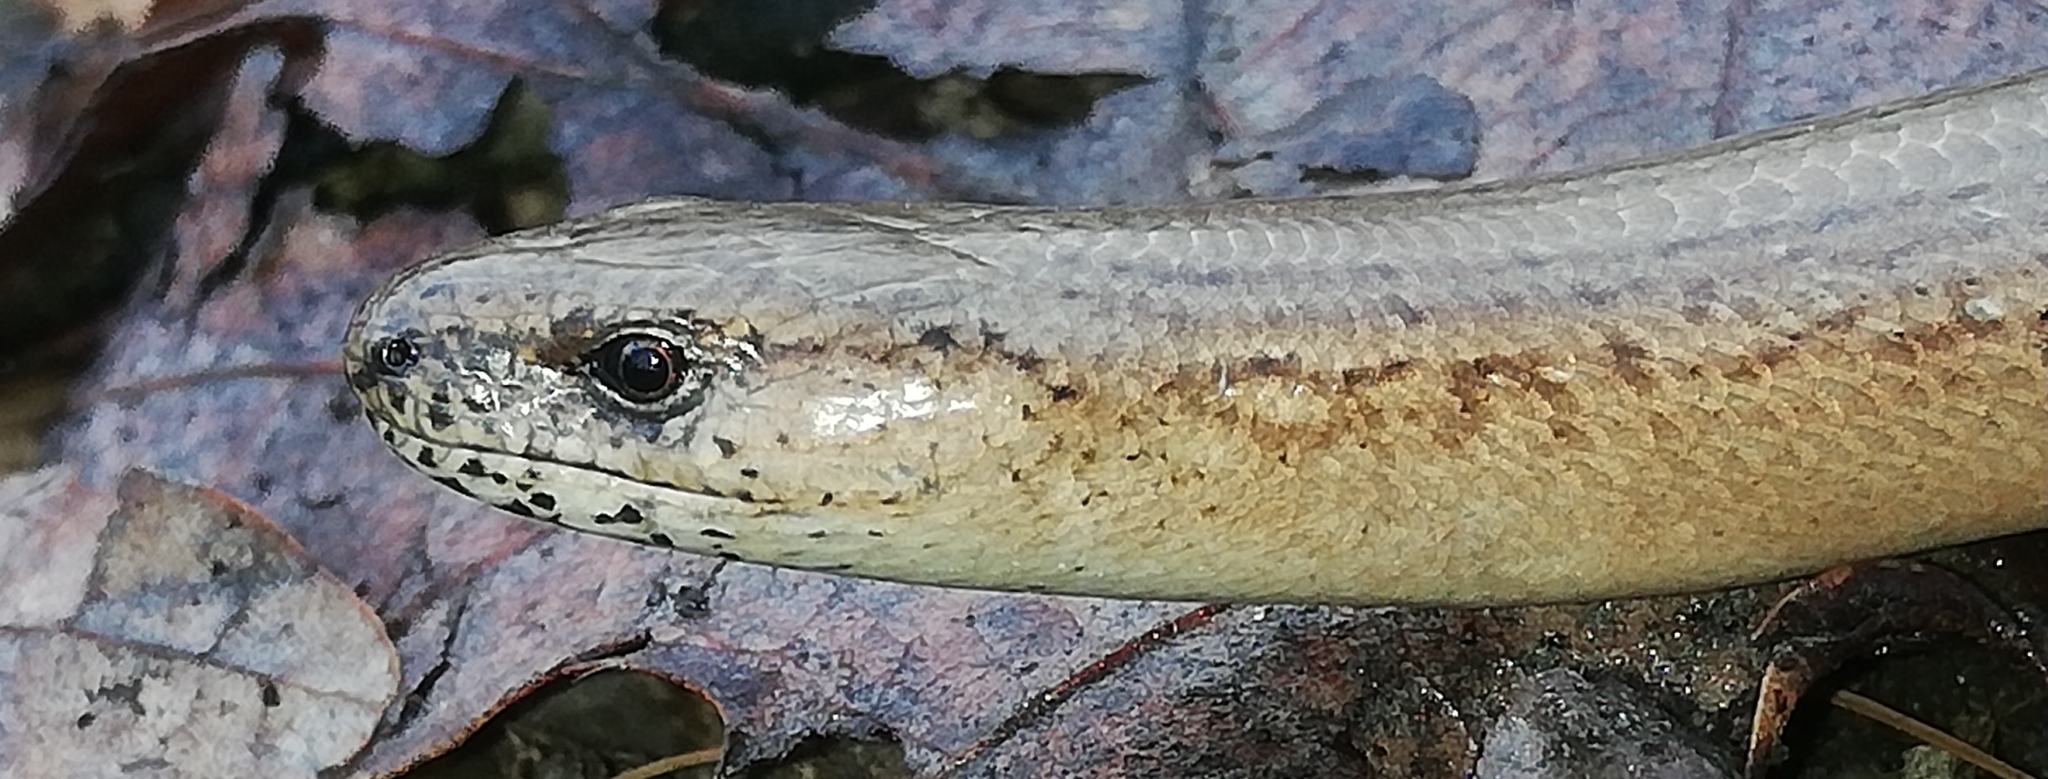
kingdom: Animalia
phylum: Chordata
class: Squamata
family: Anguidae
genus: Anguis
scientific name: Anguis fragilis
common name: Slow worm
